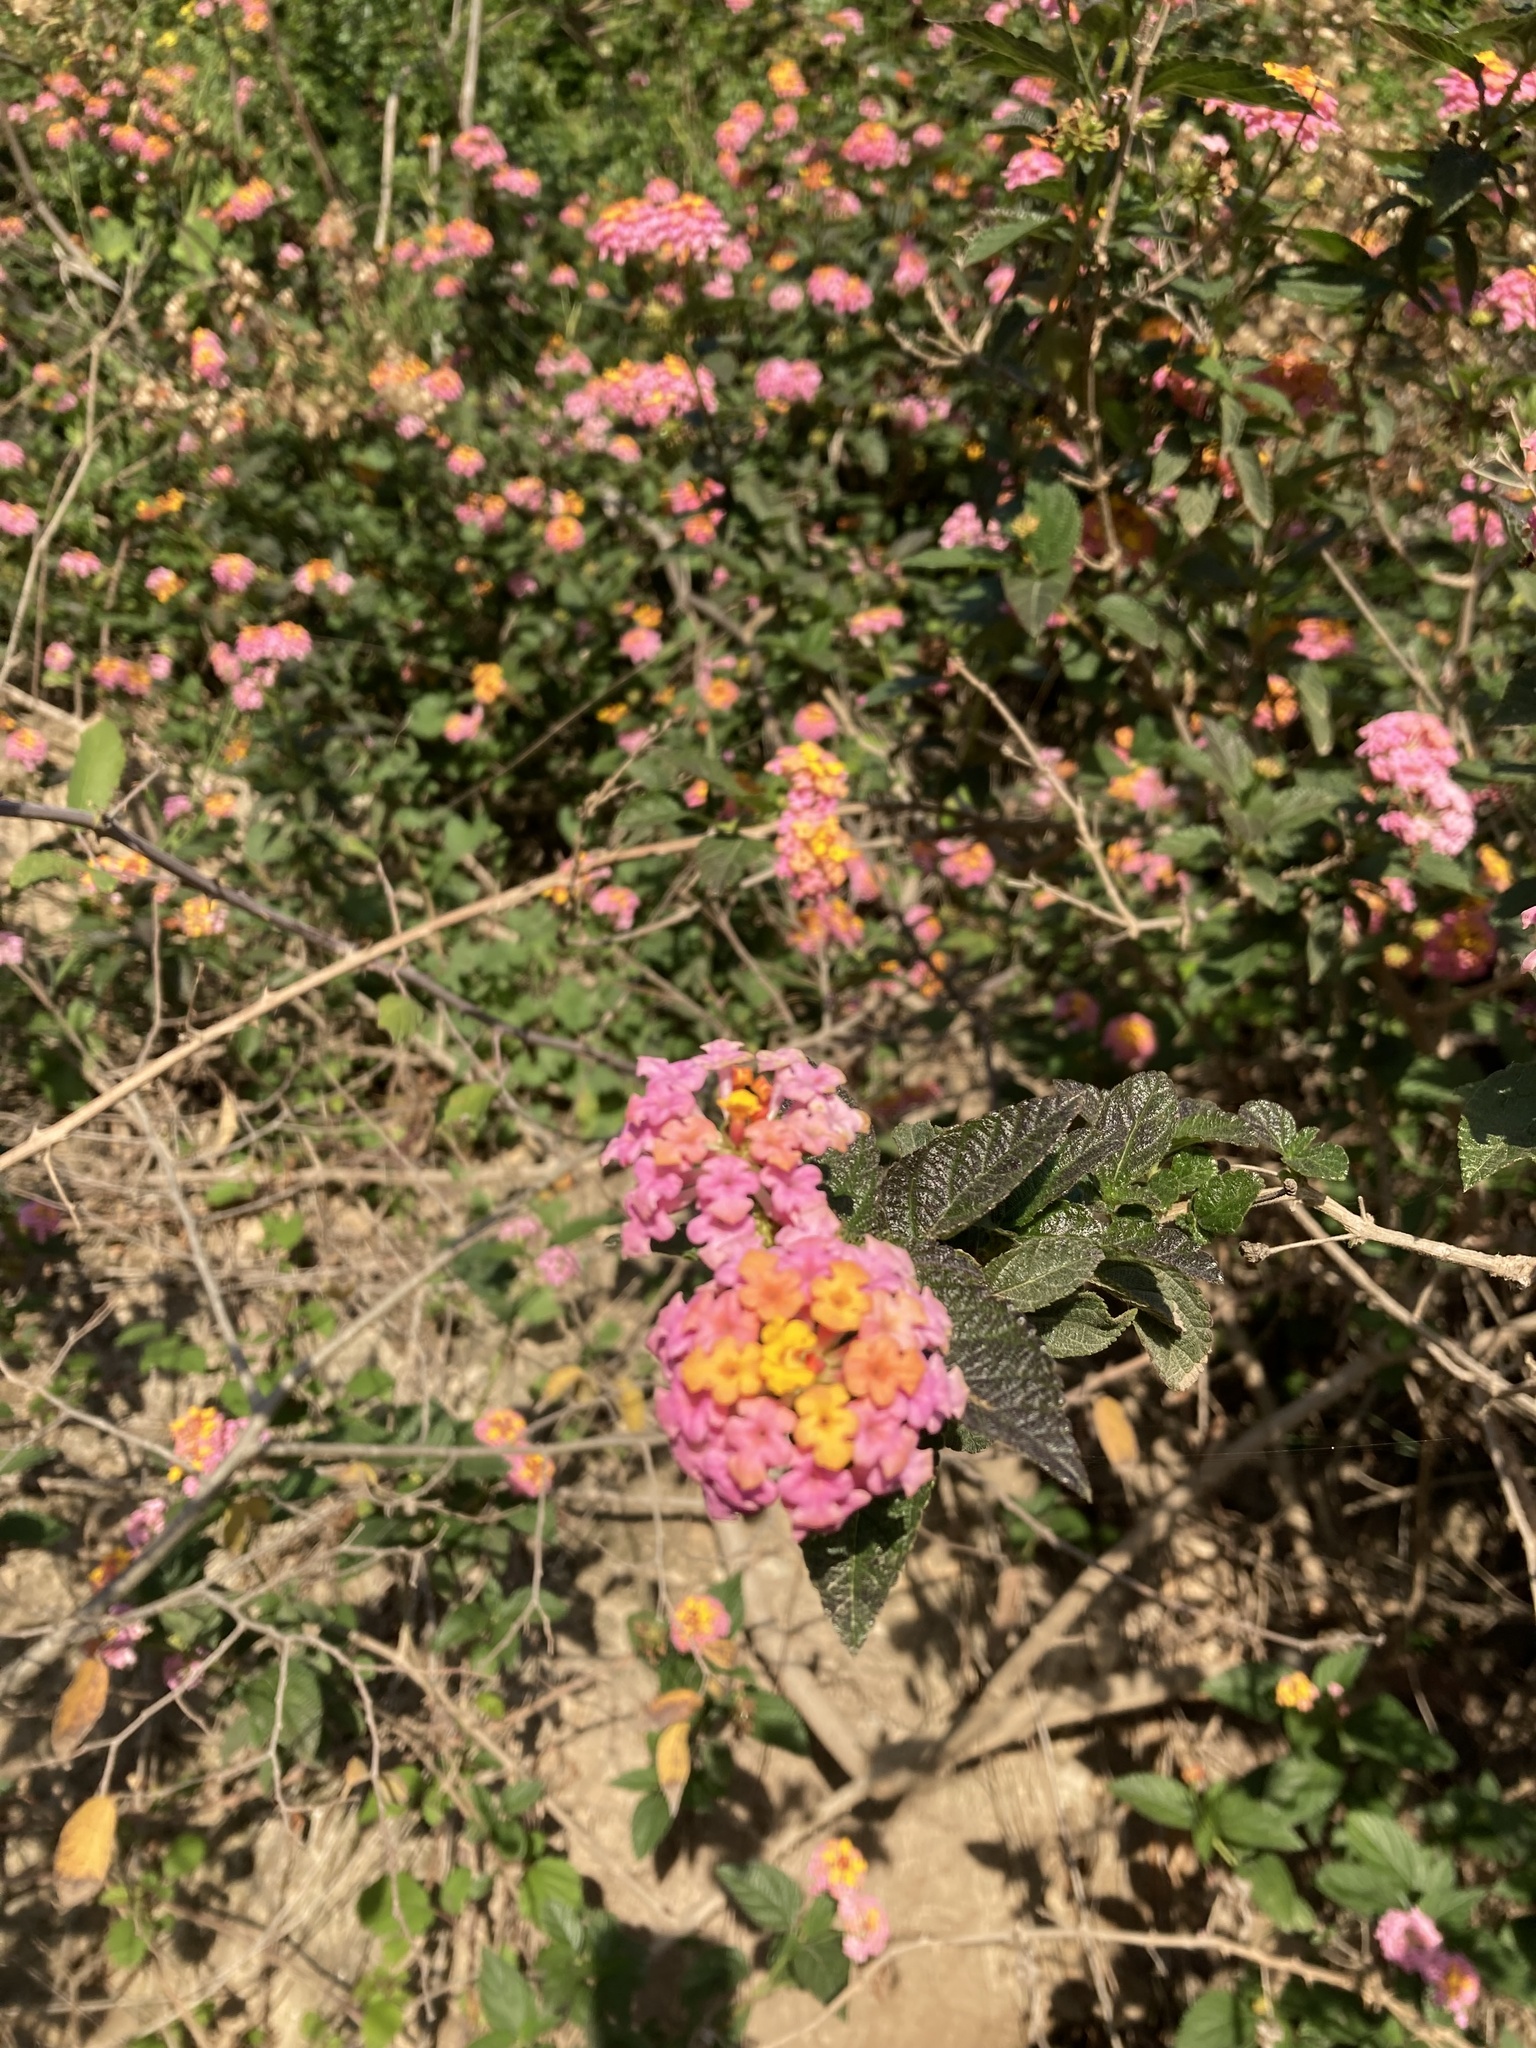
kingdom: Plantae
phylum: Tracheophyta
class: Magnoliopsida
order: Lamiales
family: Verbenaceae
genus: Lantana
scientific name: Lantana camara
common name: Lantana
